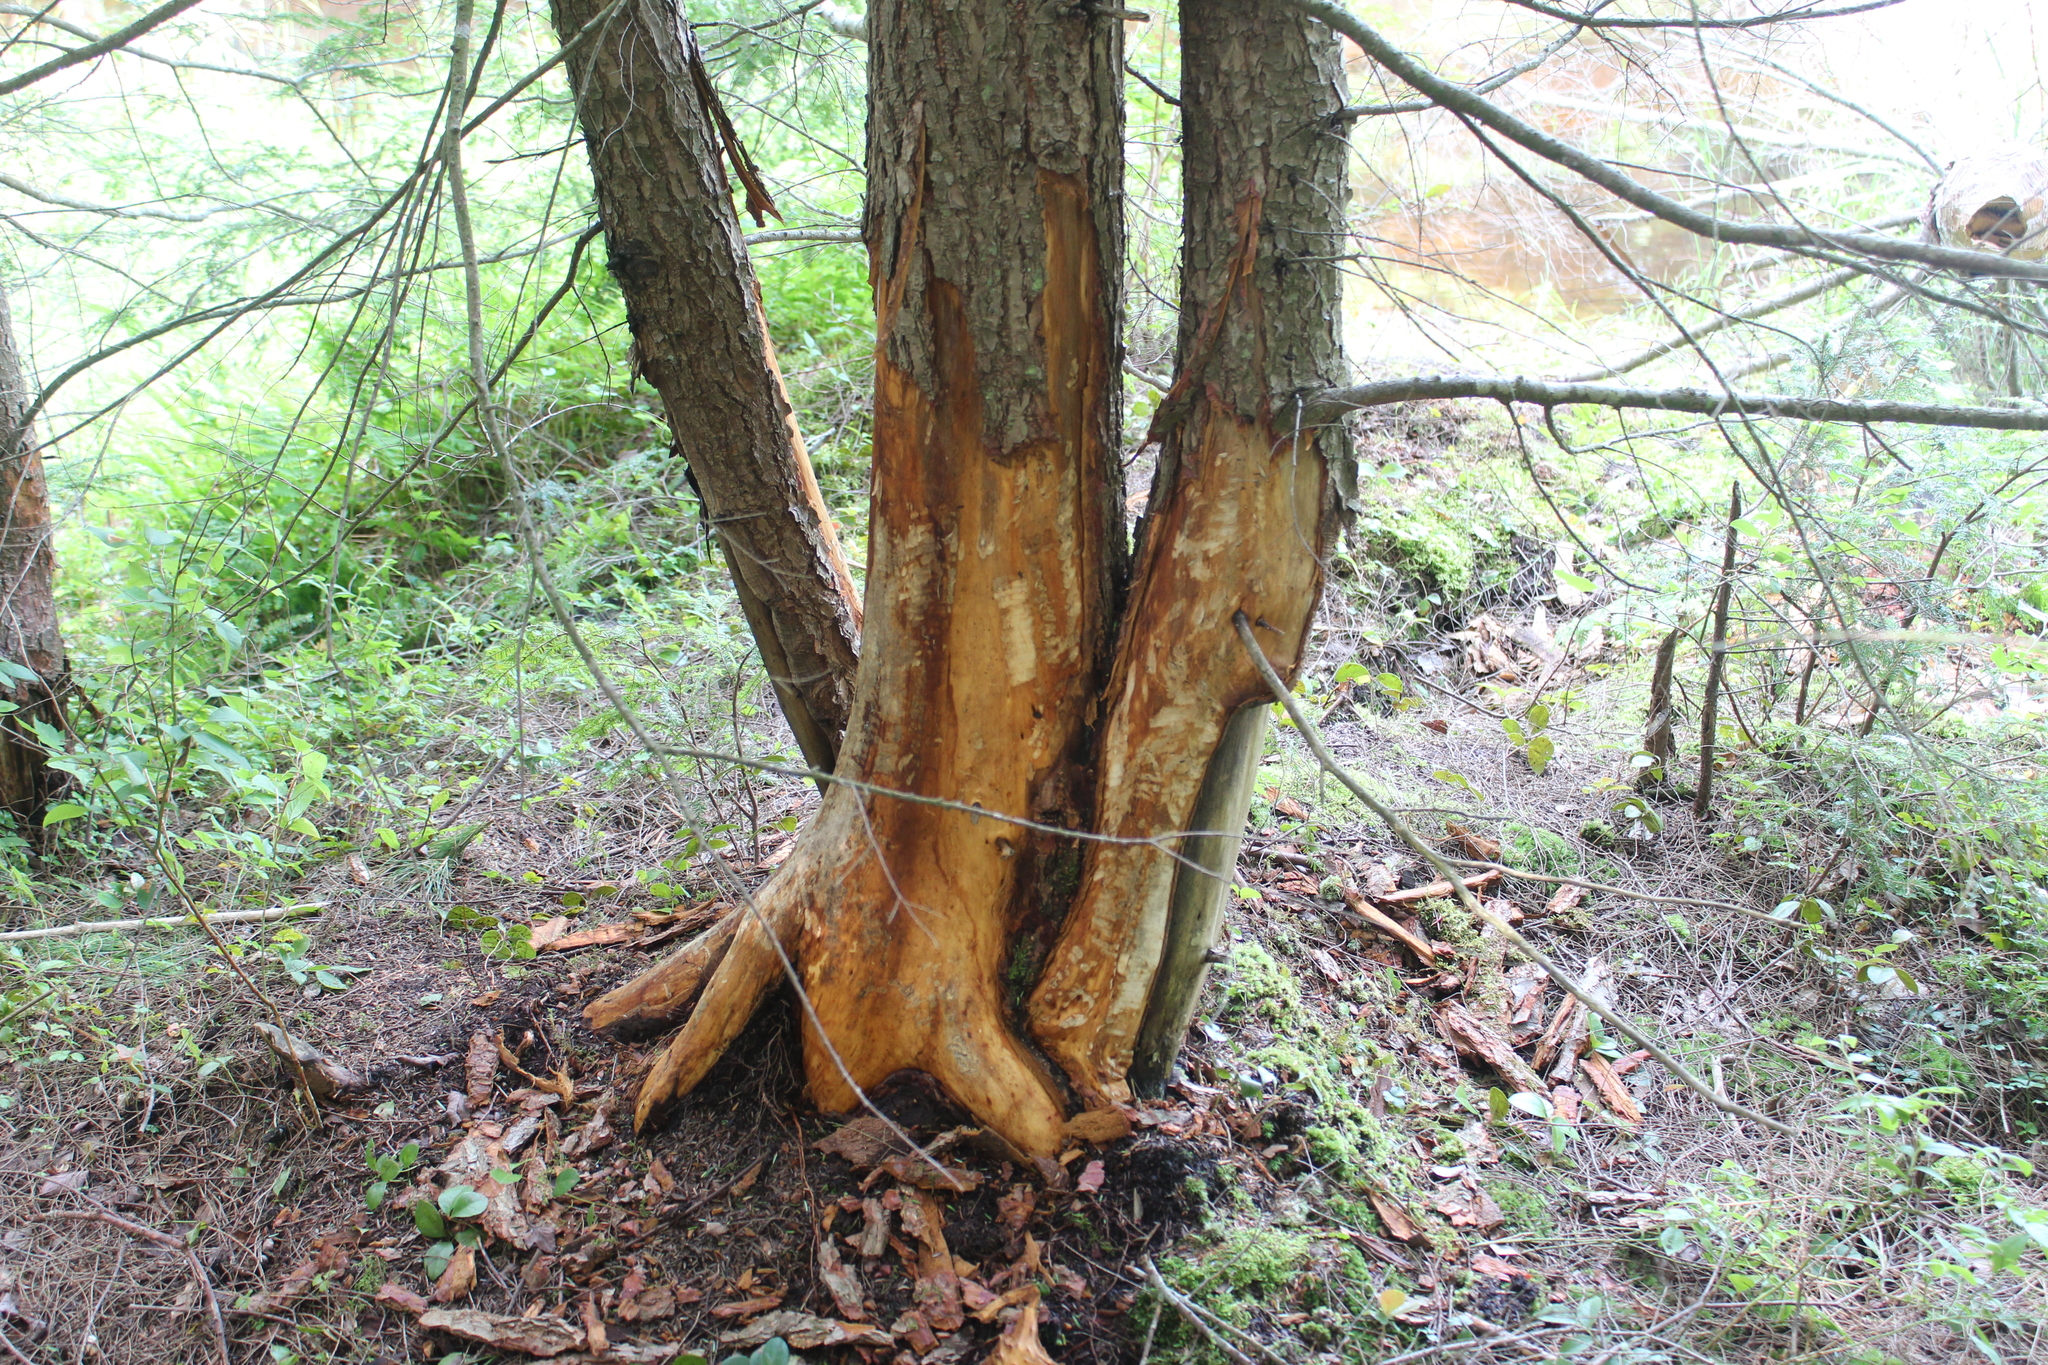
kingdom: Animalia
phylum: Chordata
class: Mammalia
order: Rodentia
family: Castoridae
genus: Castor
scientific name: Castor canadensis
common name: American beaver
